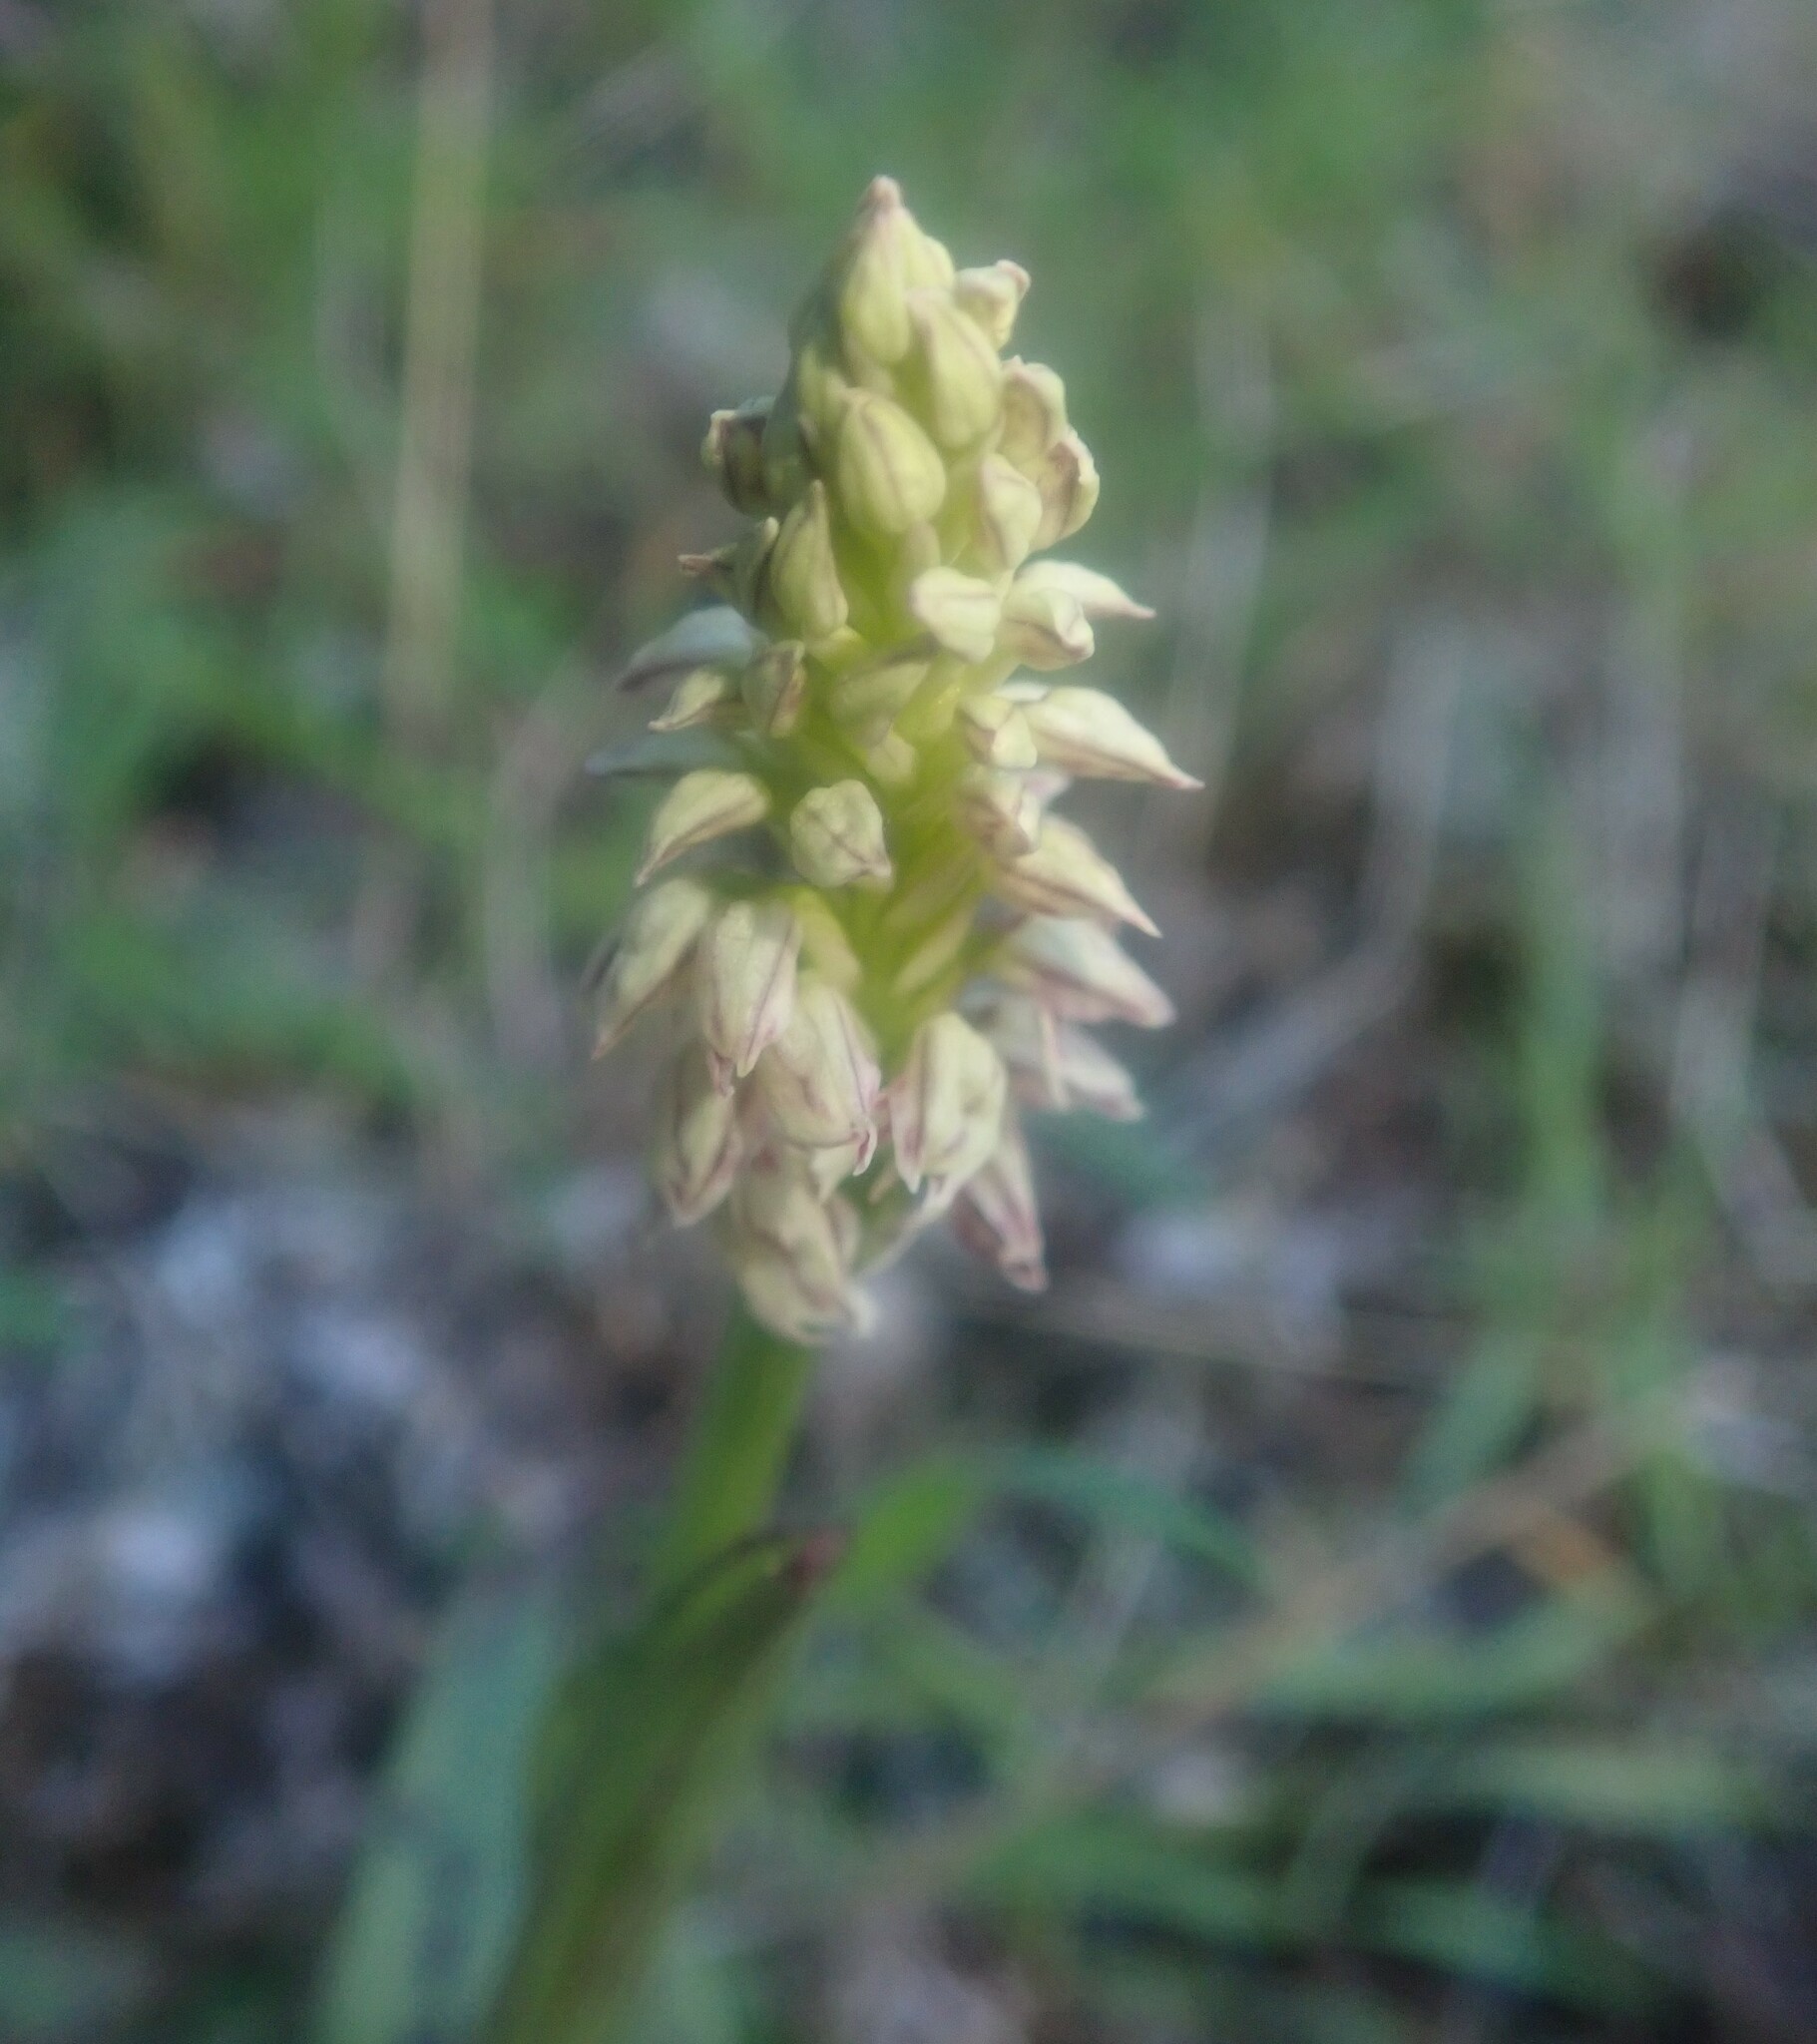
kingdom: Plantae
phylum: Tracheophyta
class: Liliopsida
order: Asparagales
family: Orchidaceae
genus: Neotinea
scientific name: Neotinea maculata
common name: Dense-flowered orchid
